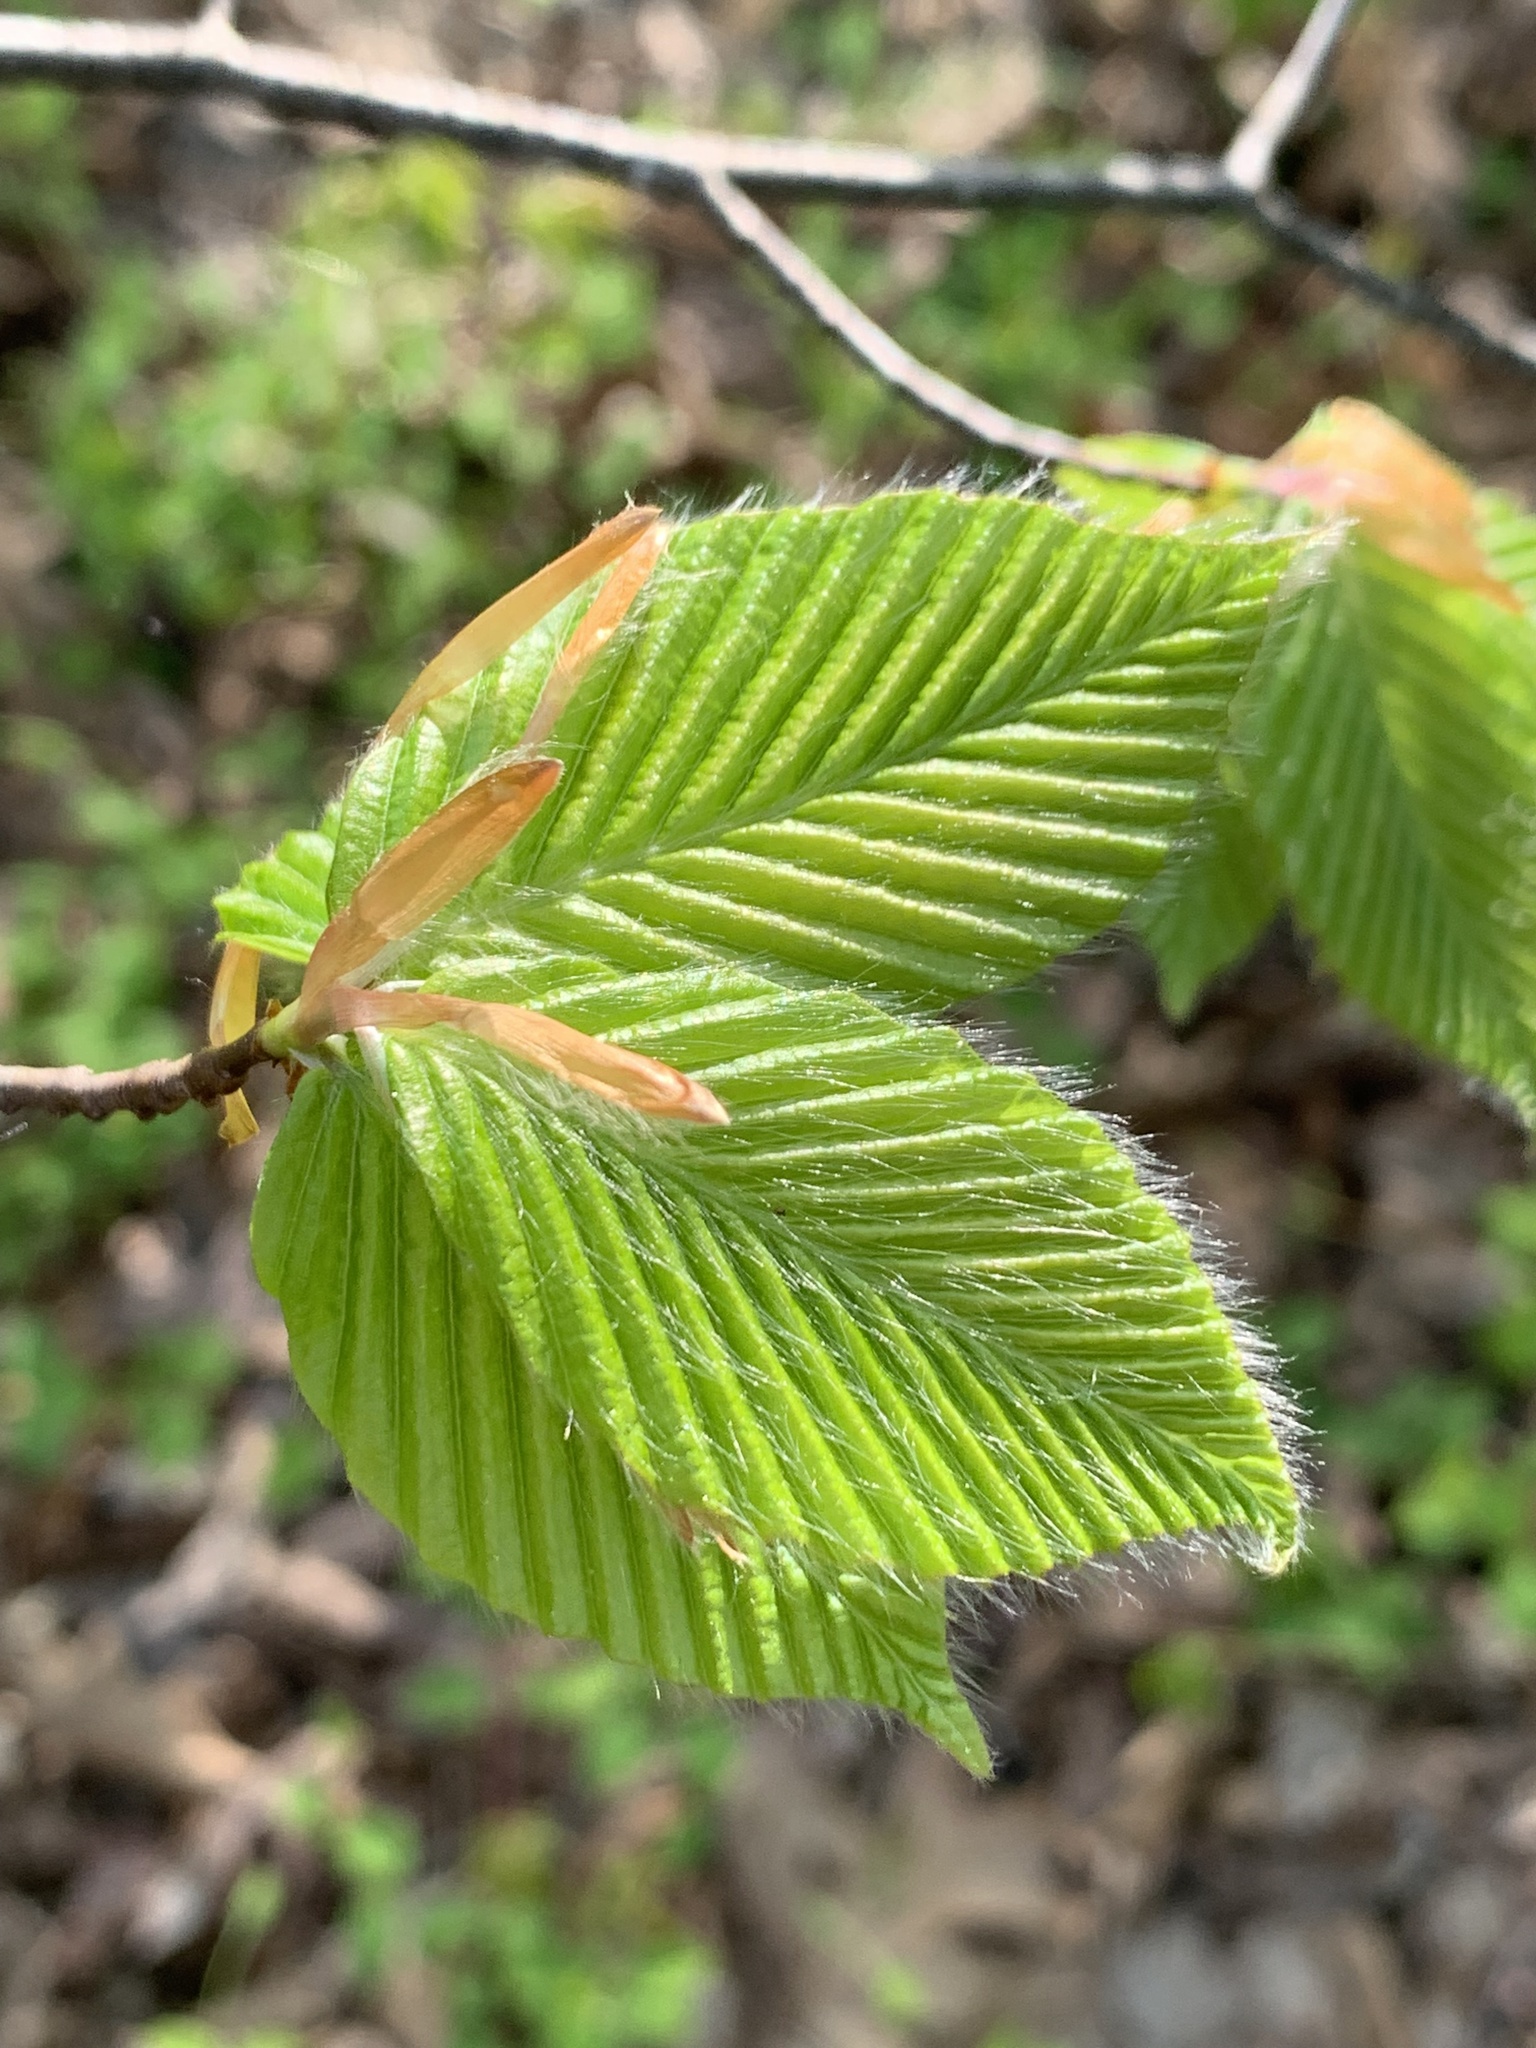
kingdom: Plantae
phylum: Tracheophyta
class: Magnoliopsida
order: Fagales
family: Fagaceae
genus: Fagus
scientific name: Fagus grandifolia
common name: American beech
